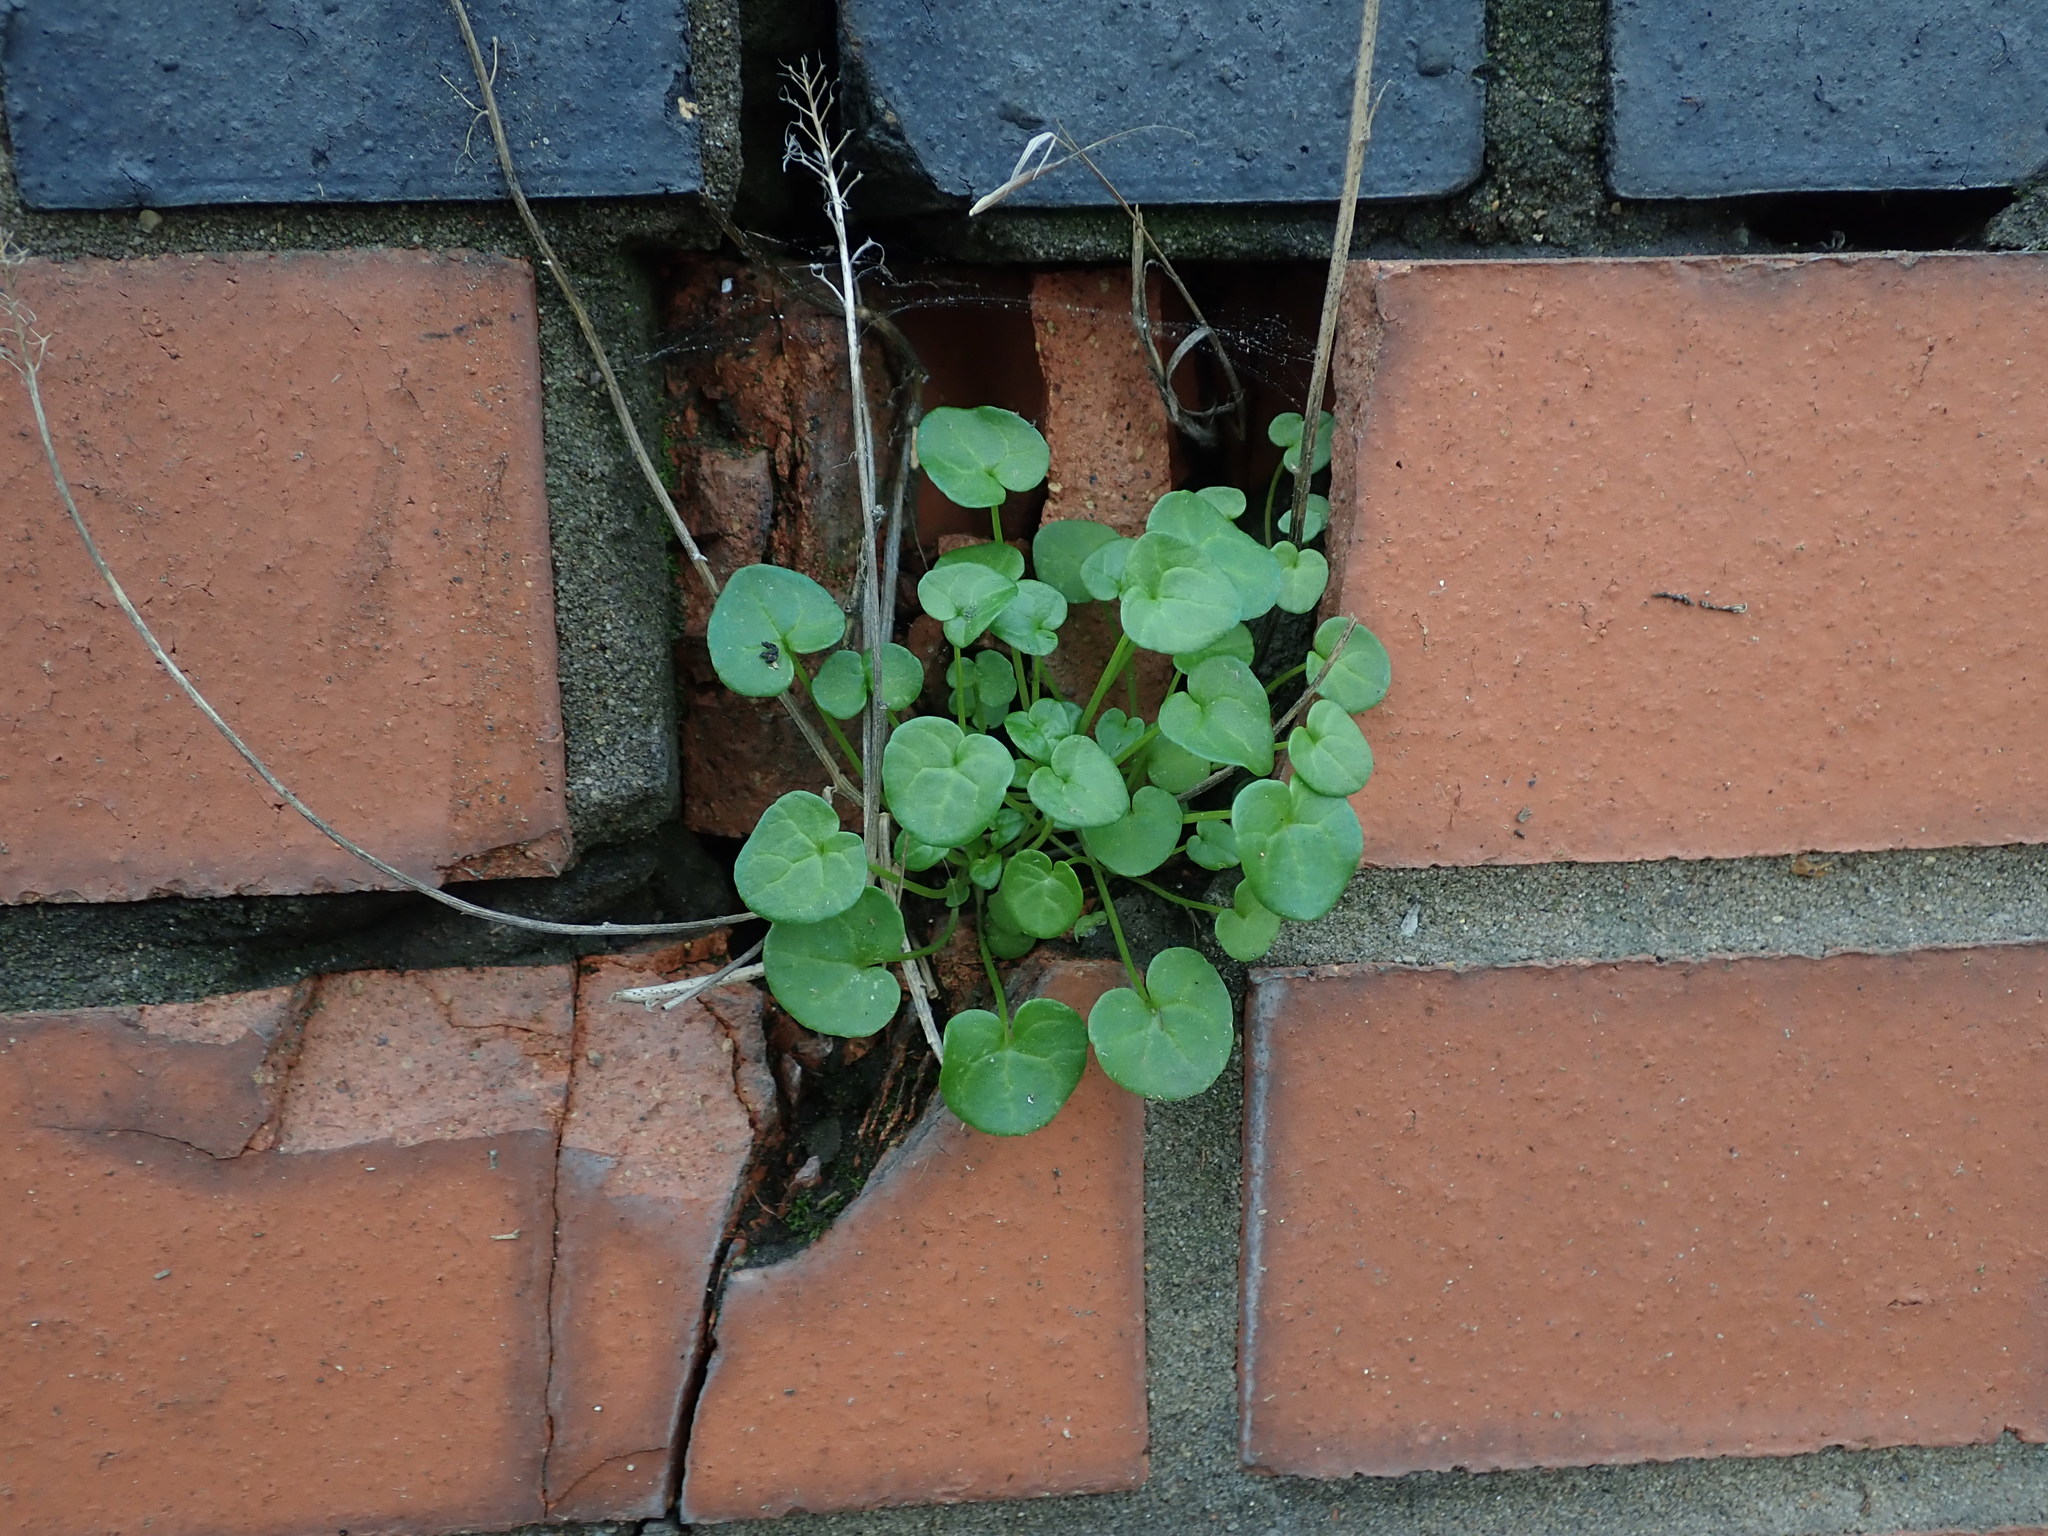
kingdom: Plantae
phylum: Tracheophyta
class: Magnoliopsida
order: Brassicales
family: Brassicaceae
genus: Cochlearia
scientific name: Cochlearia danica
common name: Early scurvygrass
